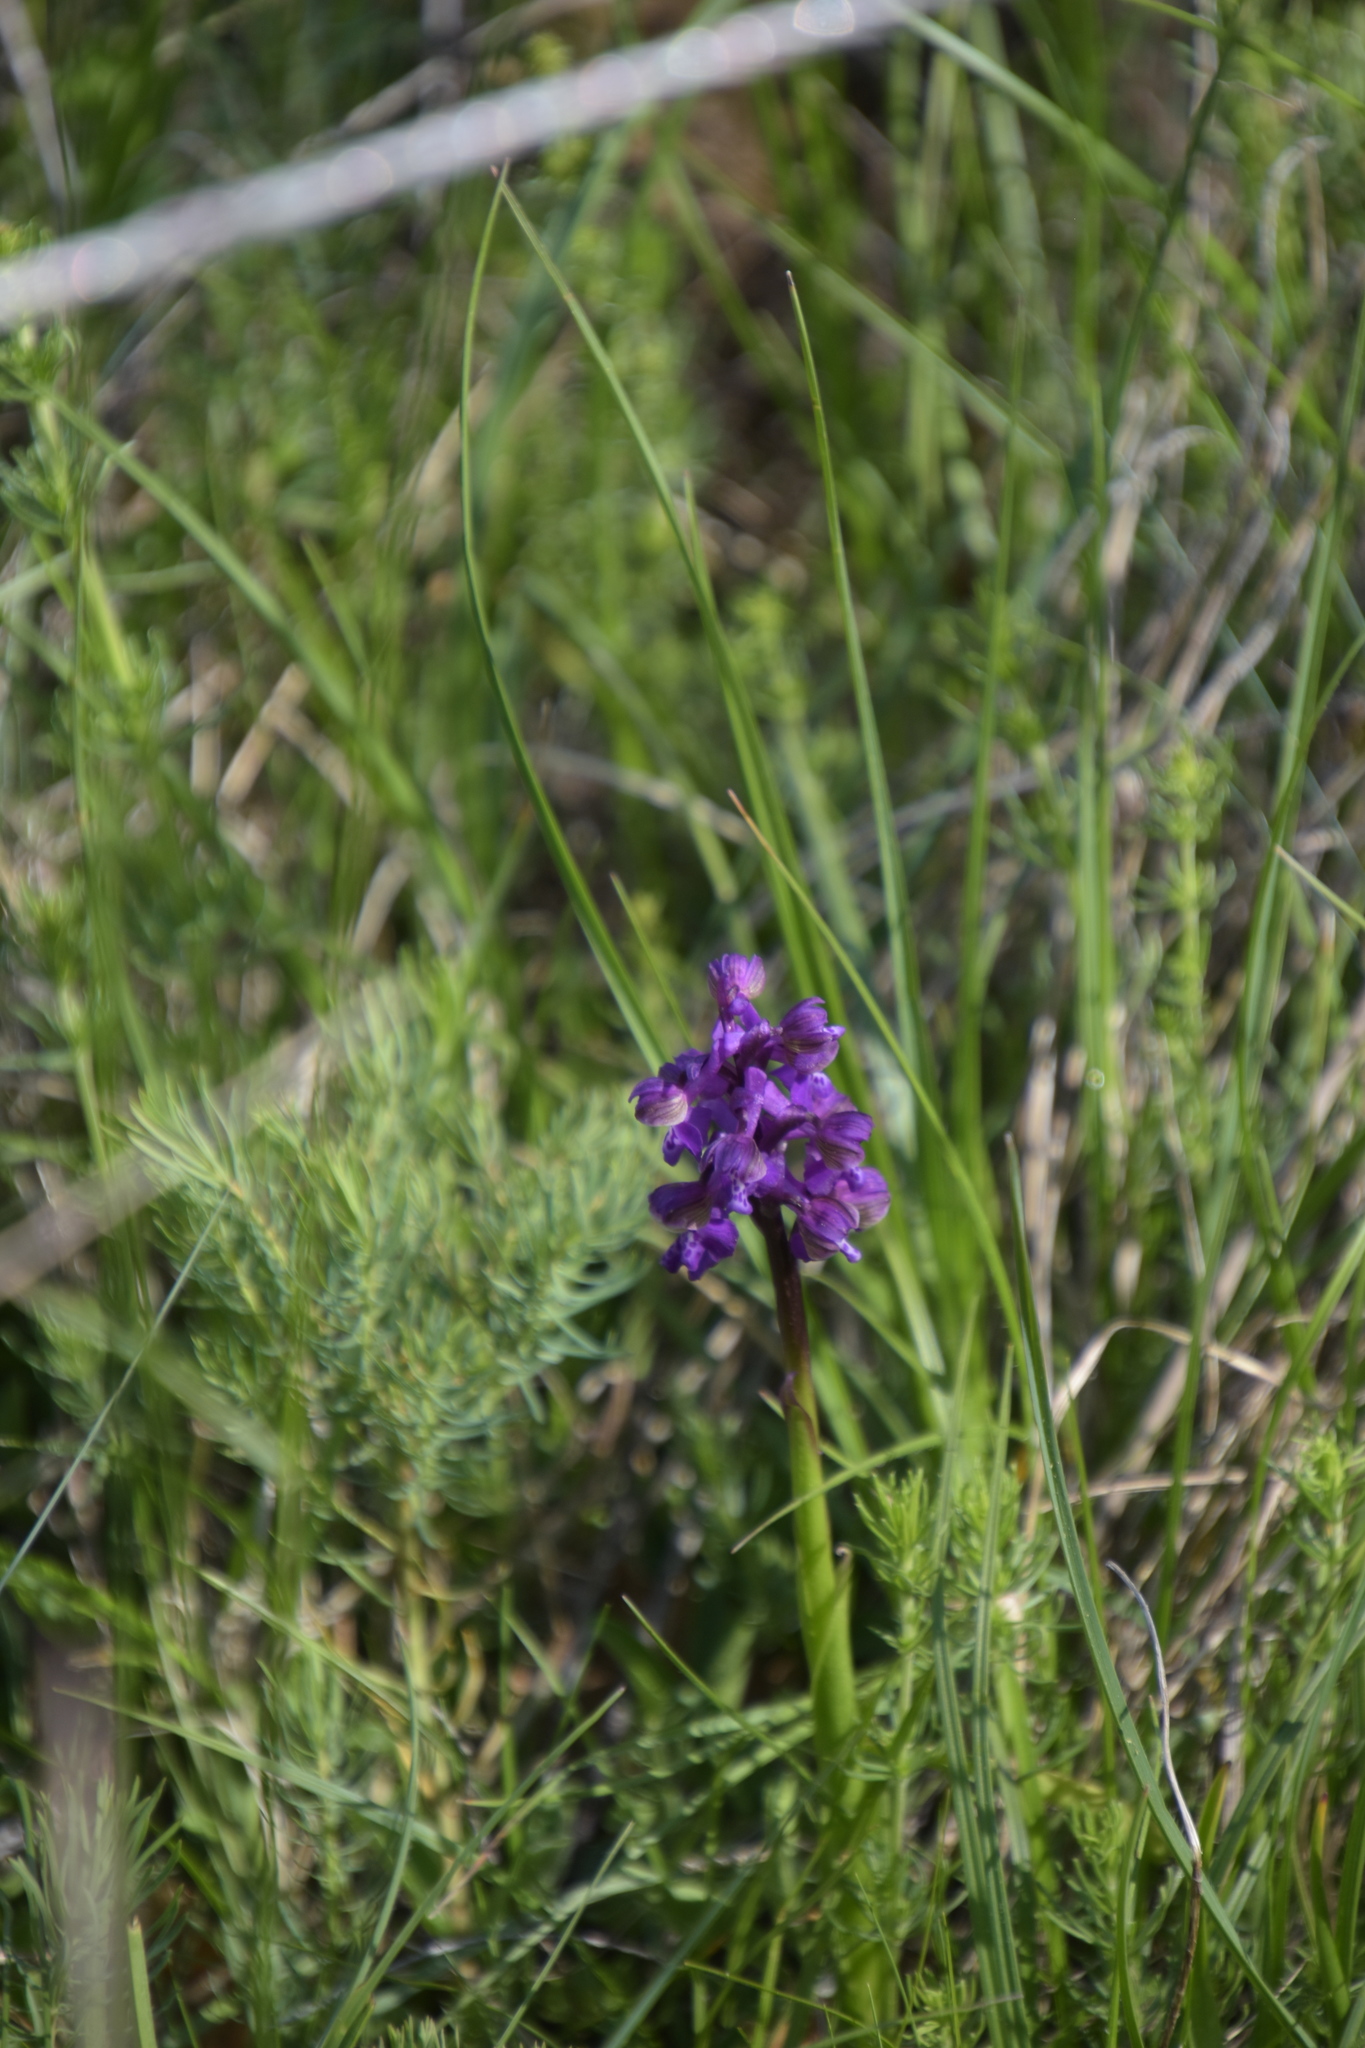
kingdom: Plantae
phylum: Tracheophyta
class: Liliopsida
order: Asparagales
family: Orchidaceae
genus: Anacamptis
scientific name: Anacamptis morio
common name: Green-winged orchid
